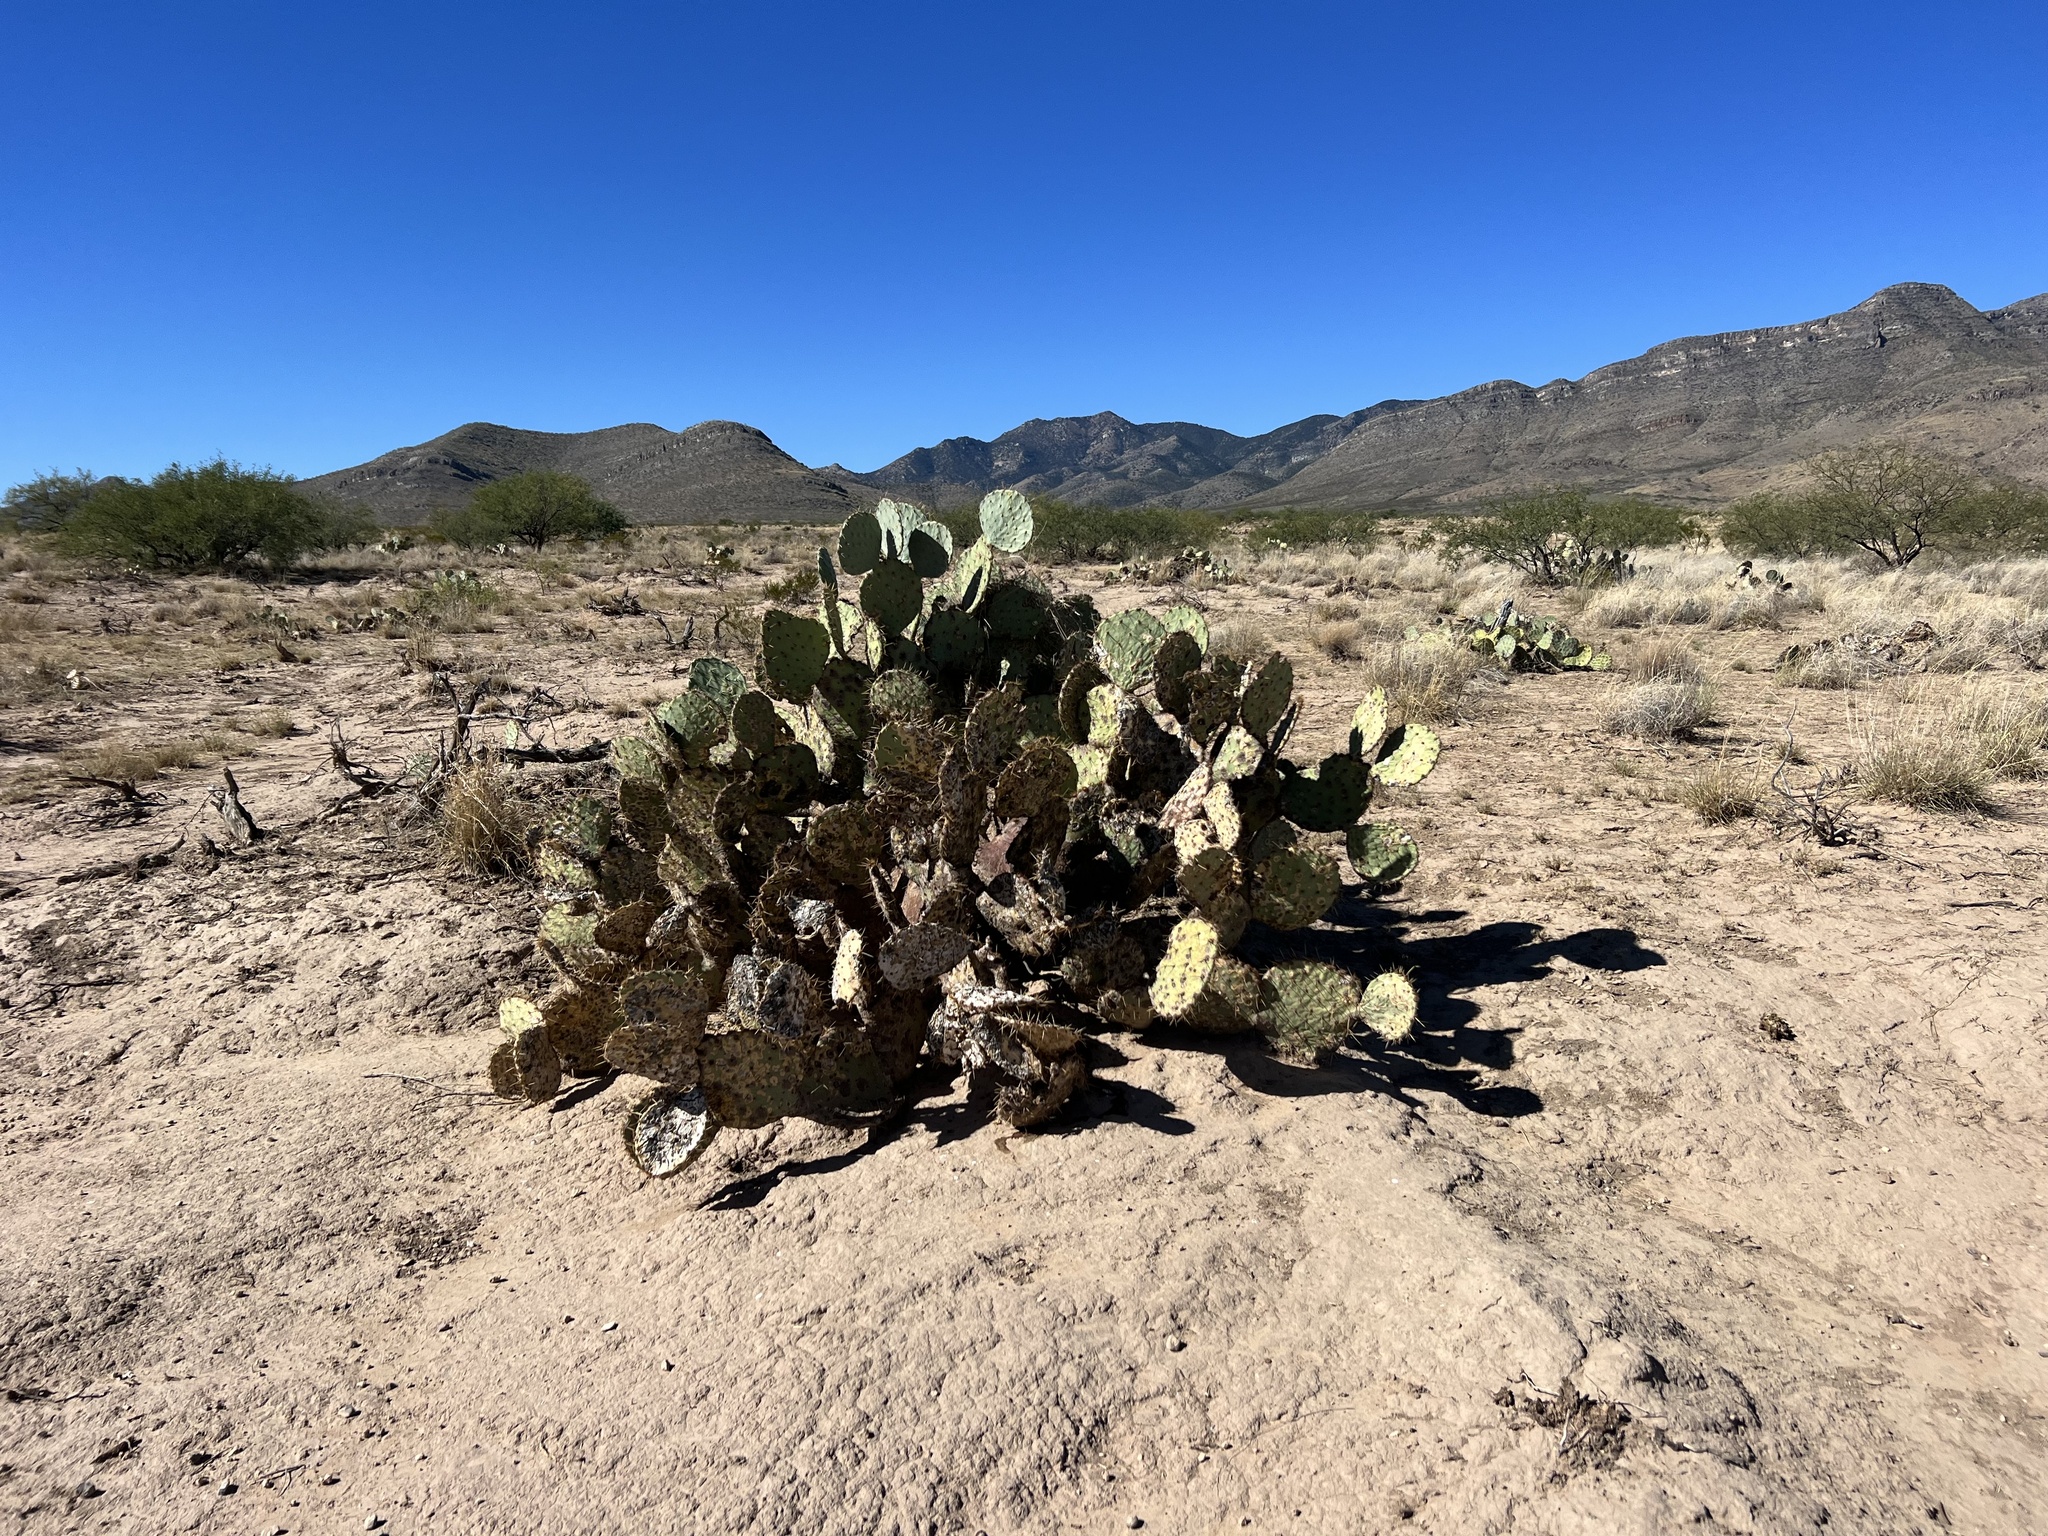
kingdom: Plantae
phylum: Tracheophyta
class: Magnoliopsida
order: Caryophyllales
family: Cactaceae
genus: Opuntia
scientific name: Opuntia engelmannii
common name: Cactus-apple
